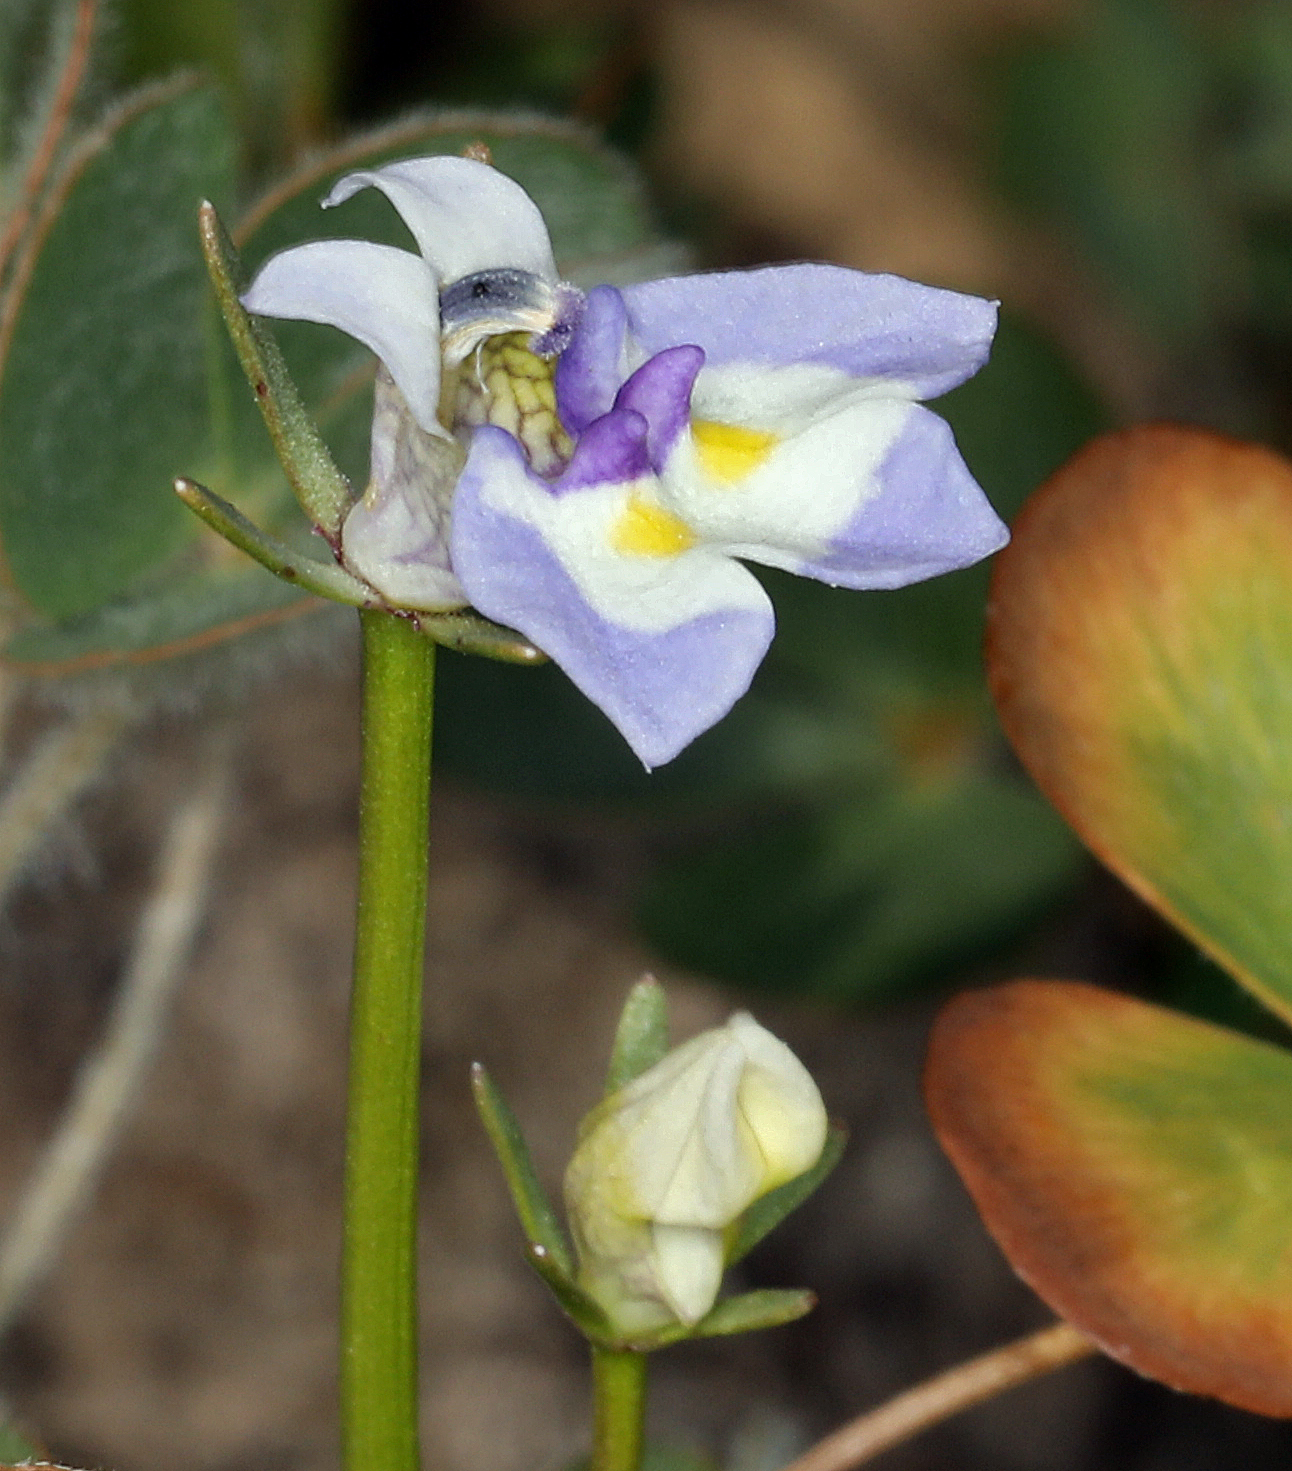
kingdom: Plantae
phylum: Tracheophyta
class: Magnoliopsida
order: Asterales
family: Campanulaceae
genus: Downingia
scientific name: Downingia bicornuta
